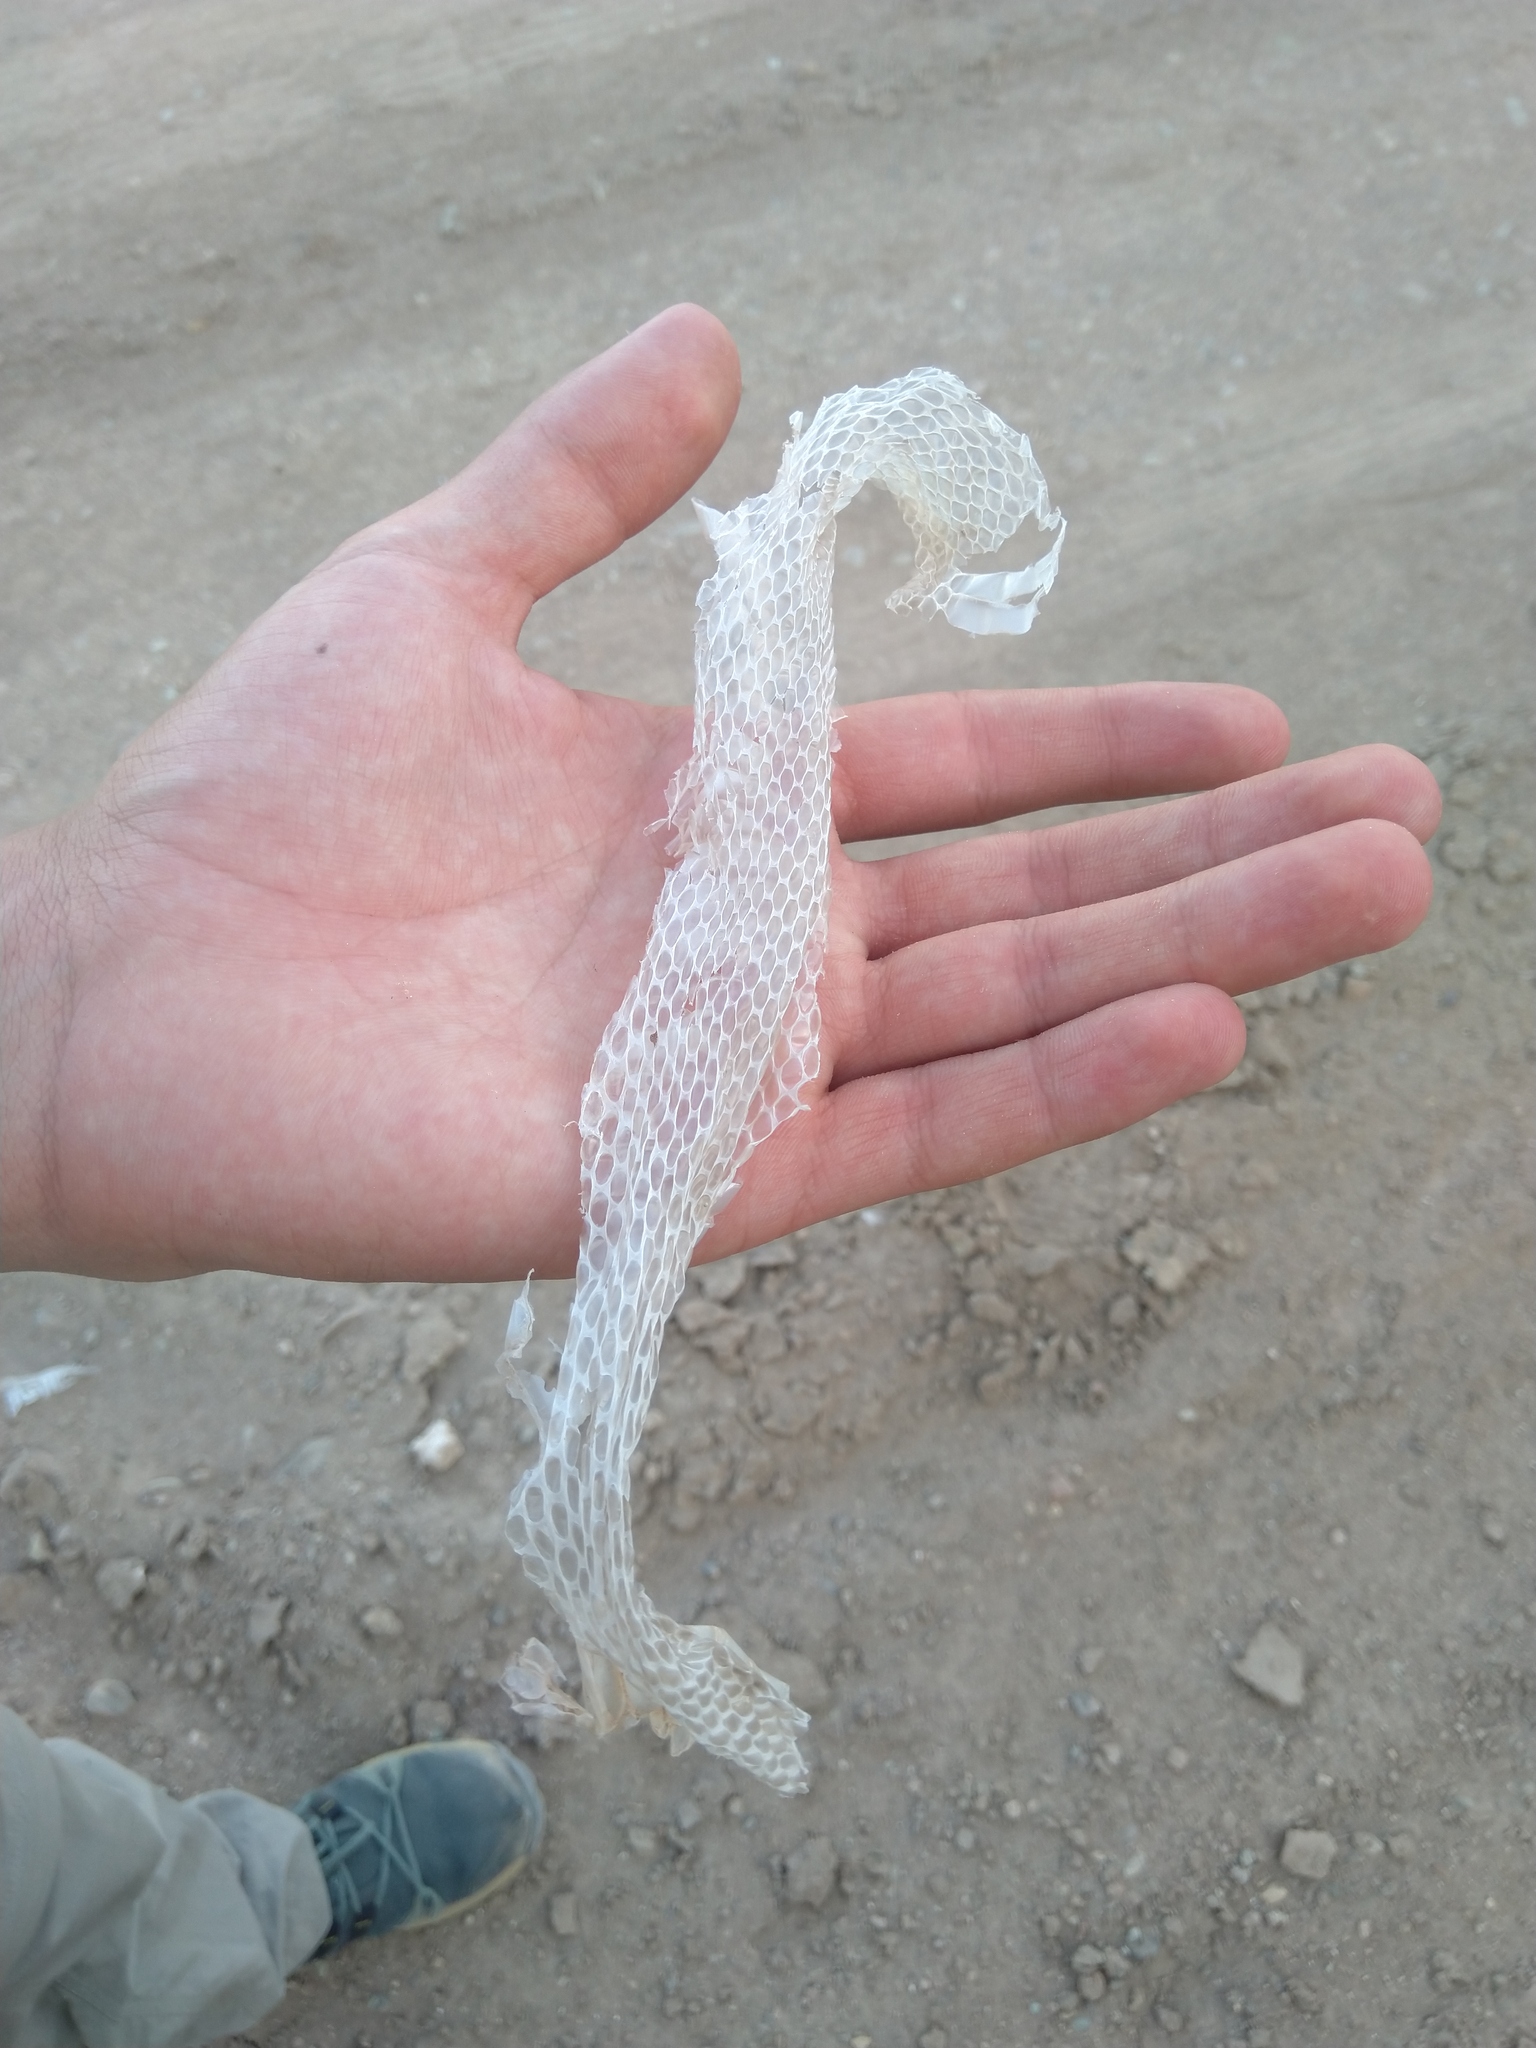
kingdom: Animalia
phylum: Chordata
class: Squamata
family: Colubridae
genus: Spalerosophis
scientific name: Spalerosophis diadema
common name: Diadem snake
